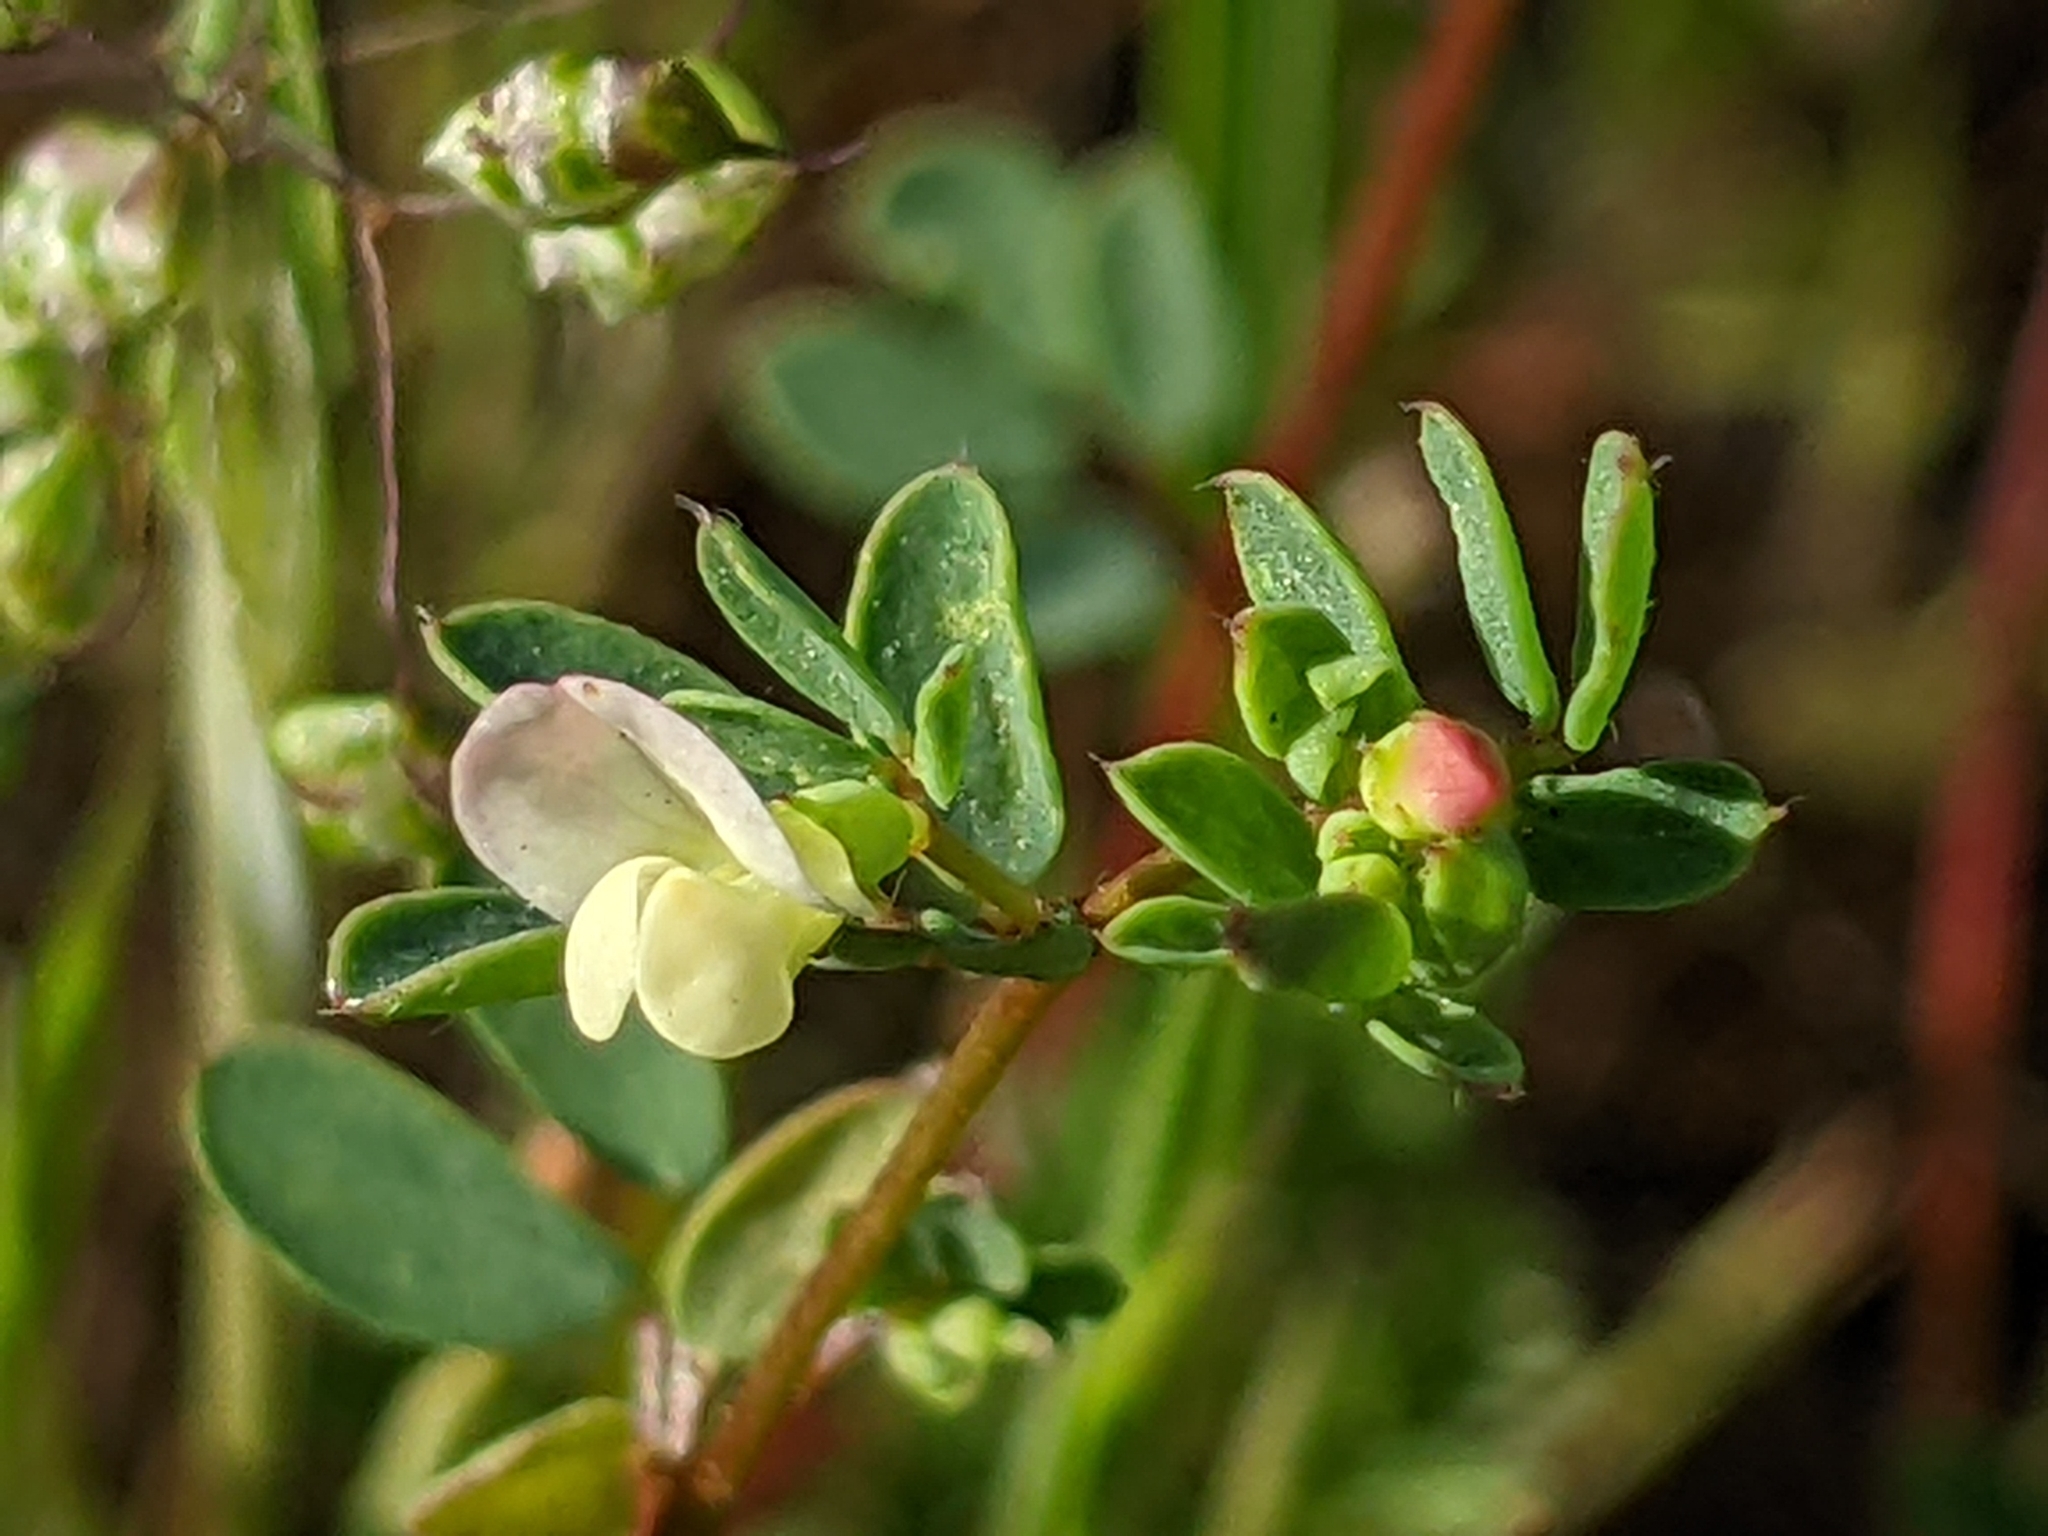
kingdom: Plantae
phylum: Tracheophyta
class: Magnoliopsida
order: Fabales
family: Fabaceae
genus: Acmispon
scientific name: Acmispon parviflorus
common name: Desert deer-vetch
